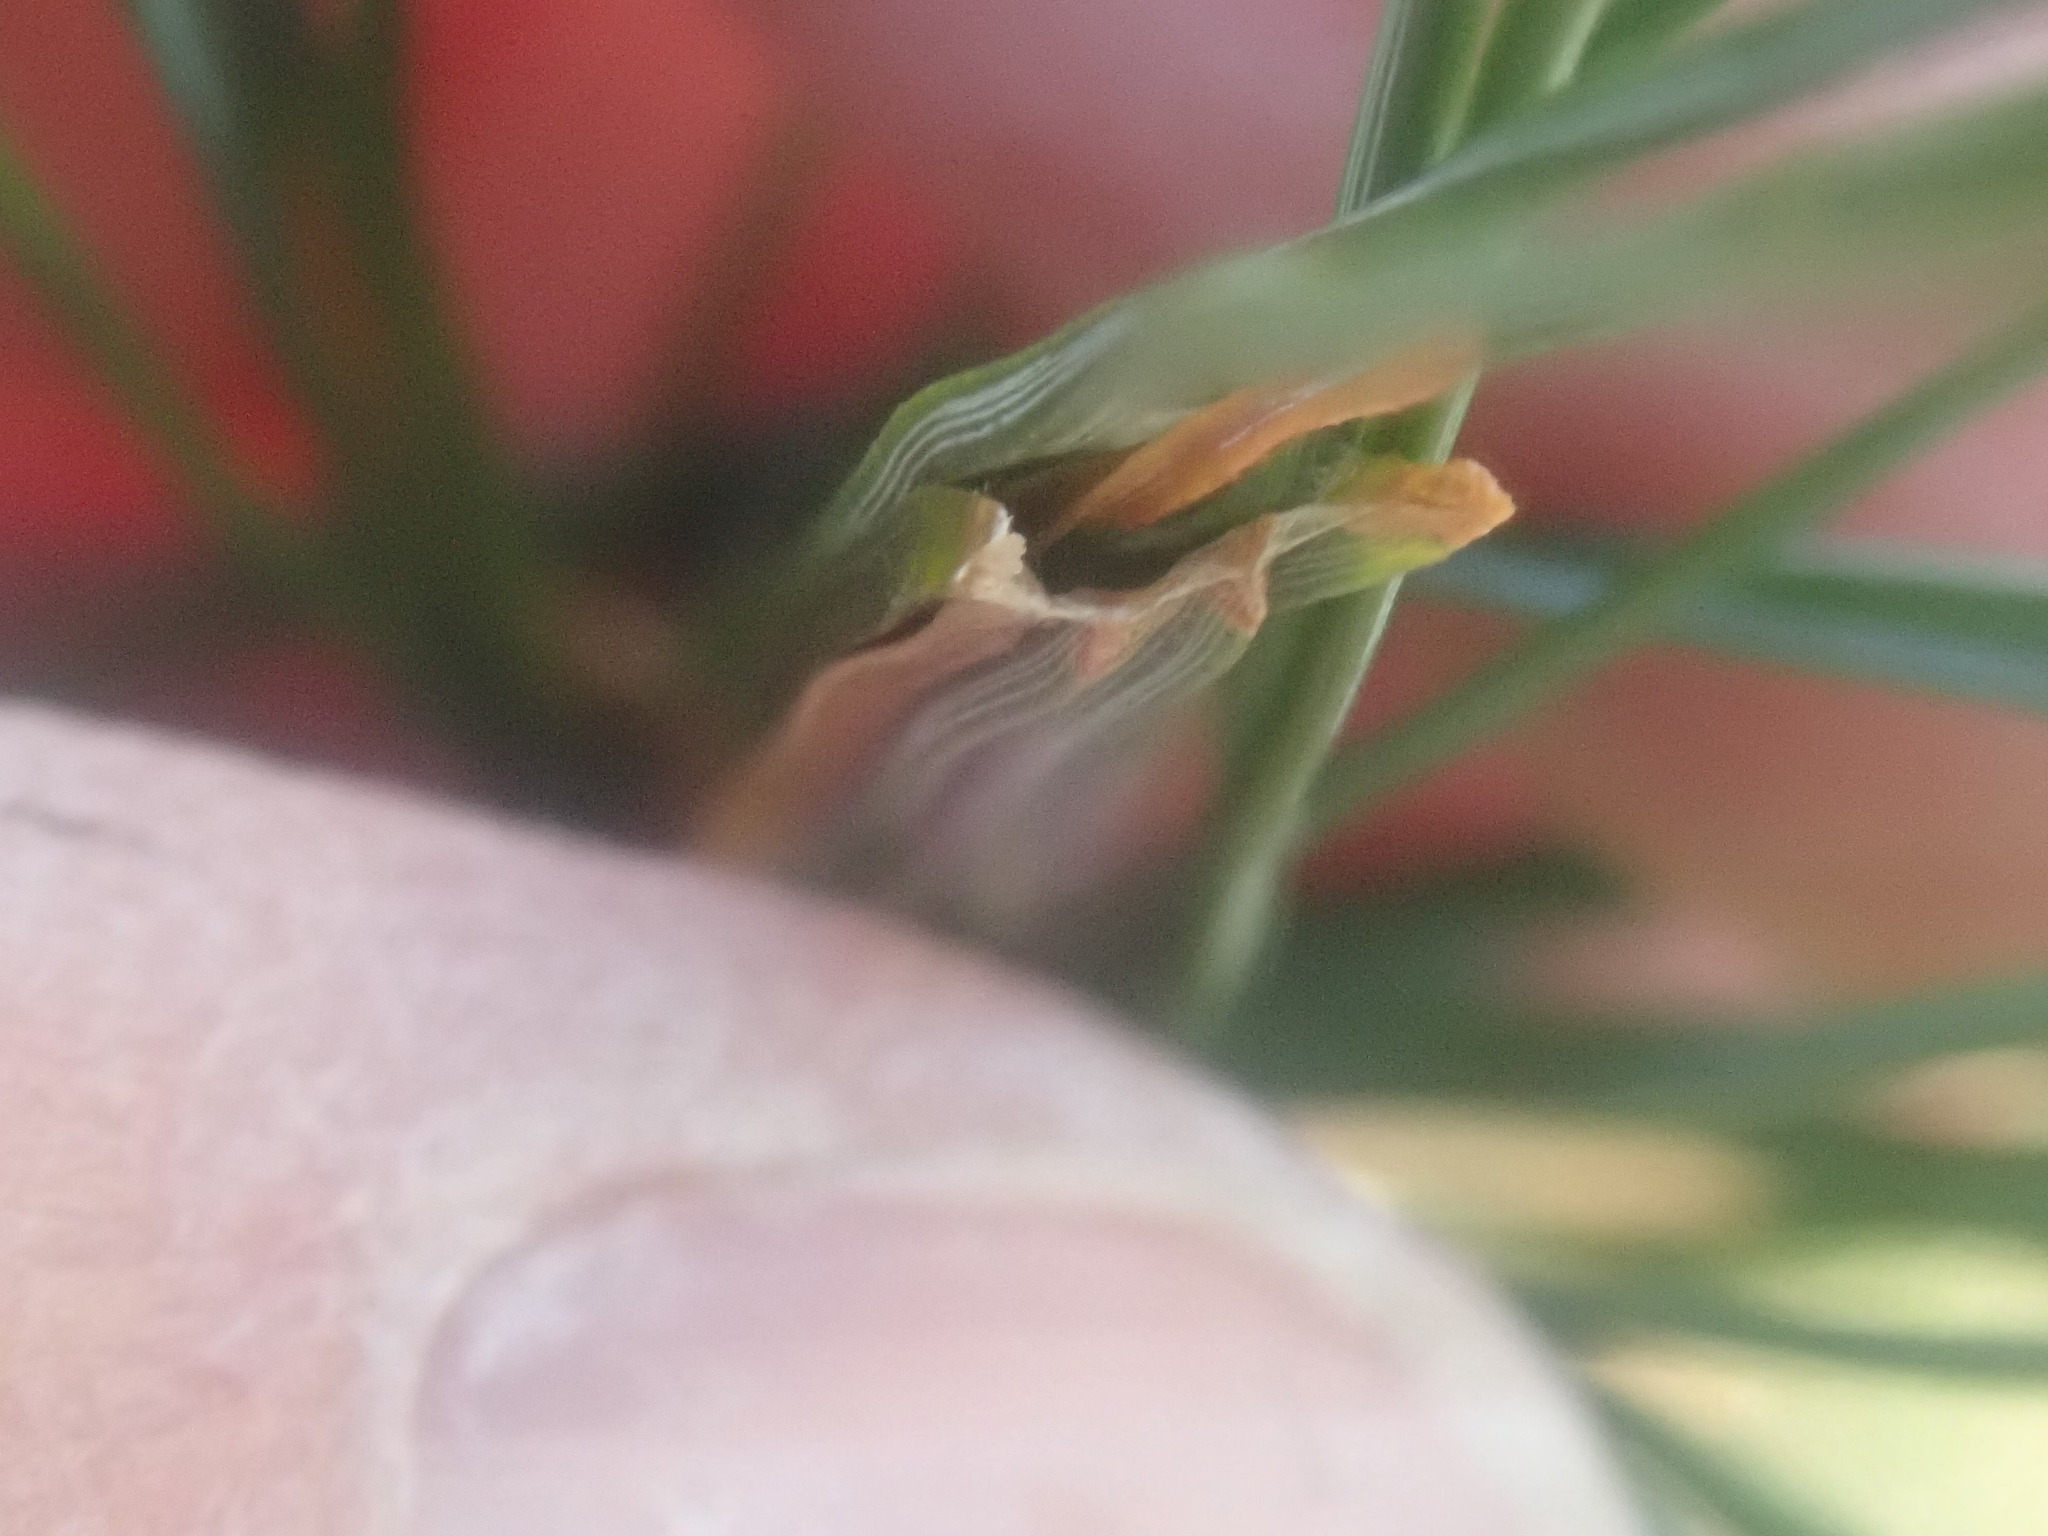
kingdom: Animalia
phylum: Arthropoda
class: Insecta
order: Lepidoptera
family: Tortricidae
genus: Argyrotaenia
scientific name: Argyrotaenia pinatubana
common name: Pine tube moth
